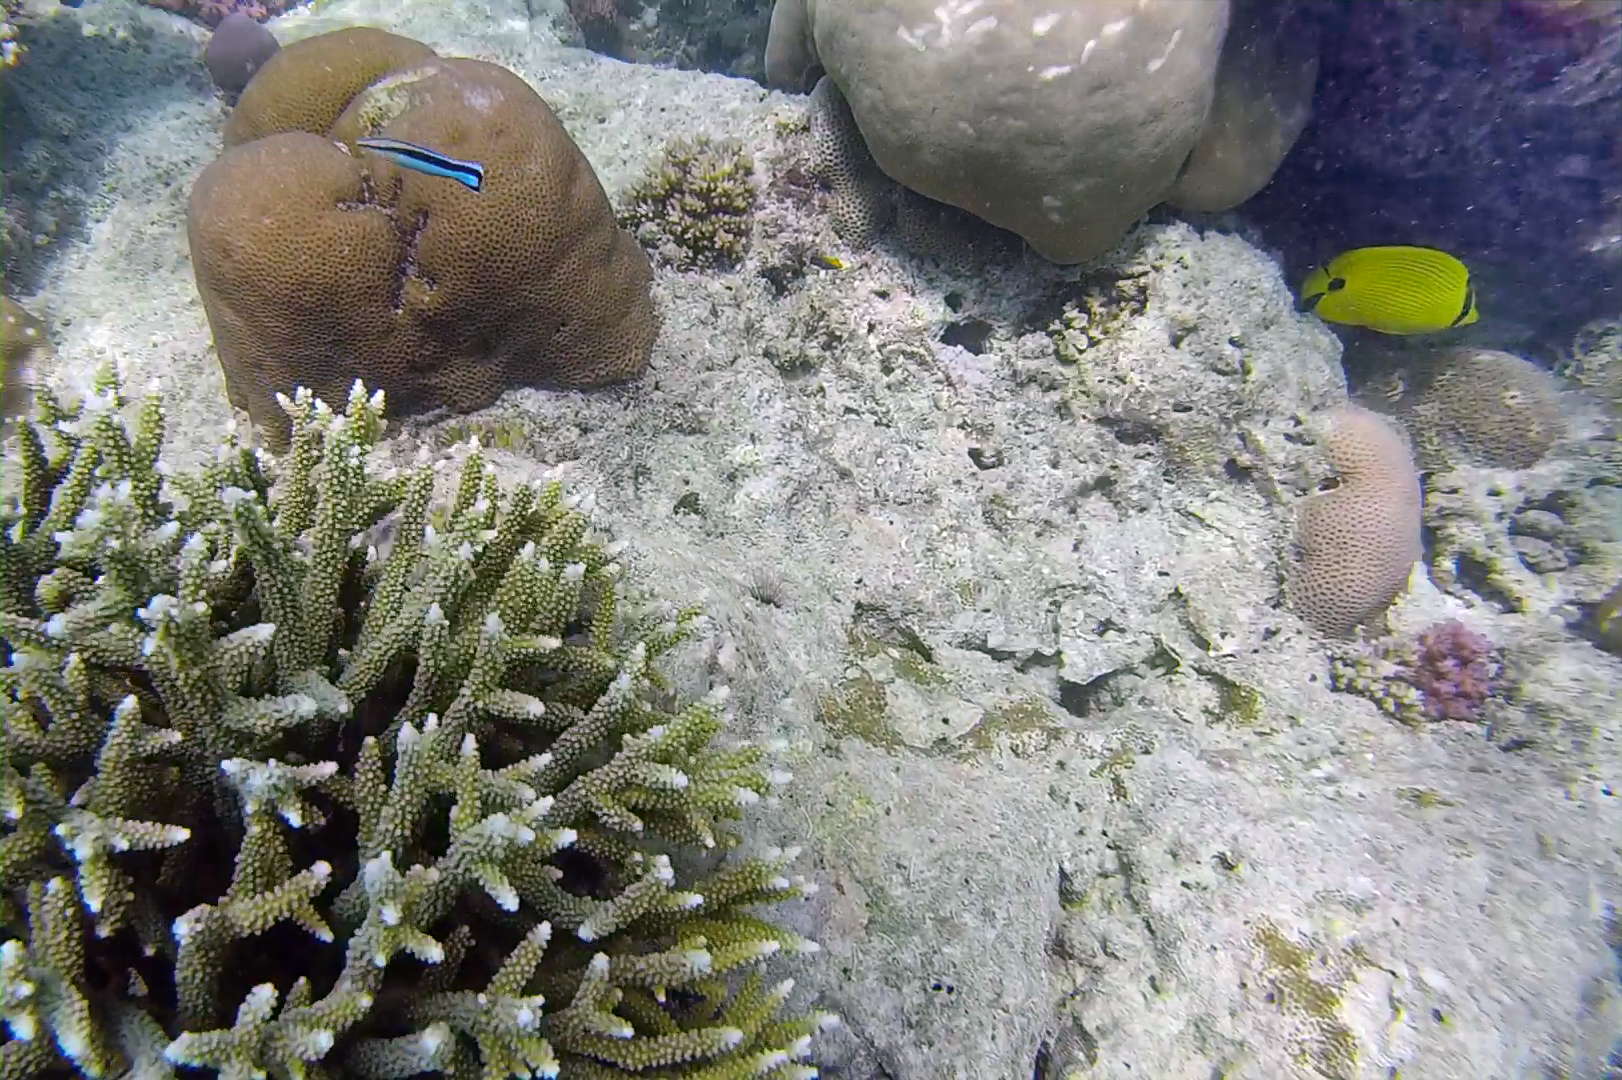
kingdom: Animalia
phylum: Chordata
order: Perciformes
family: Labridae
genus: Labroides
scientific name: Labroides dimidiatus
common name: Blue diesel wrasse
